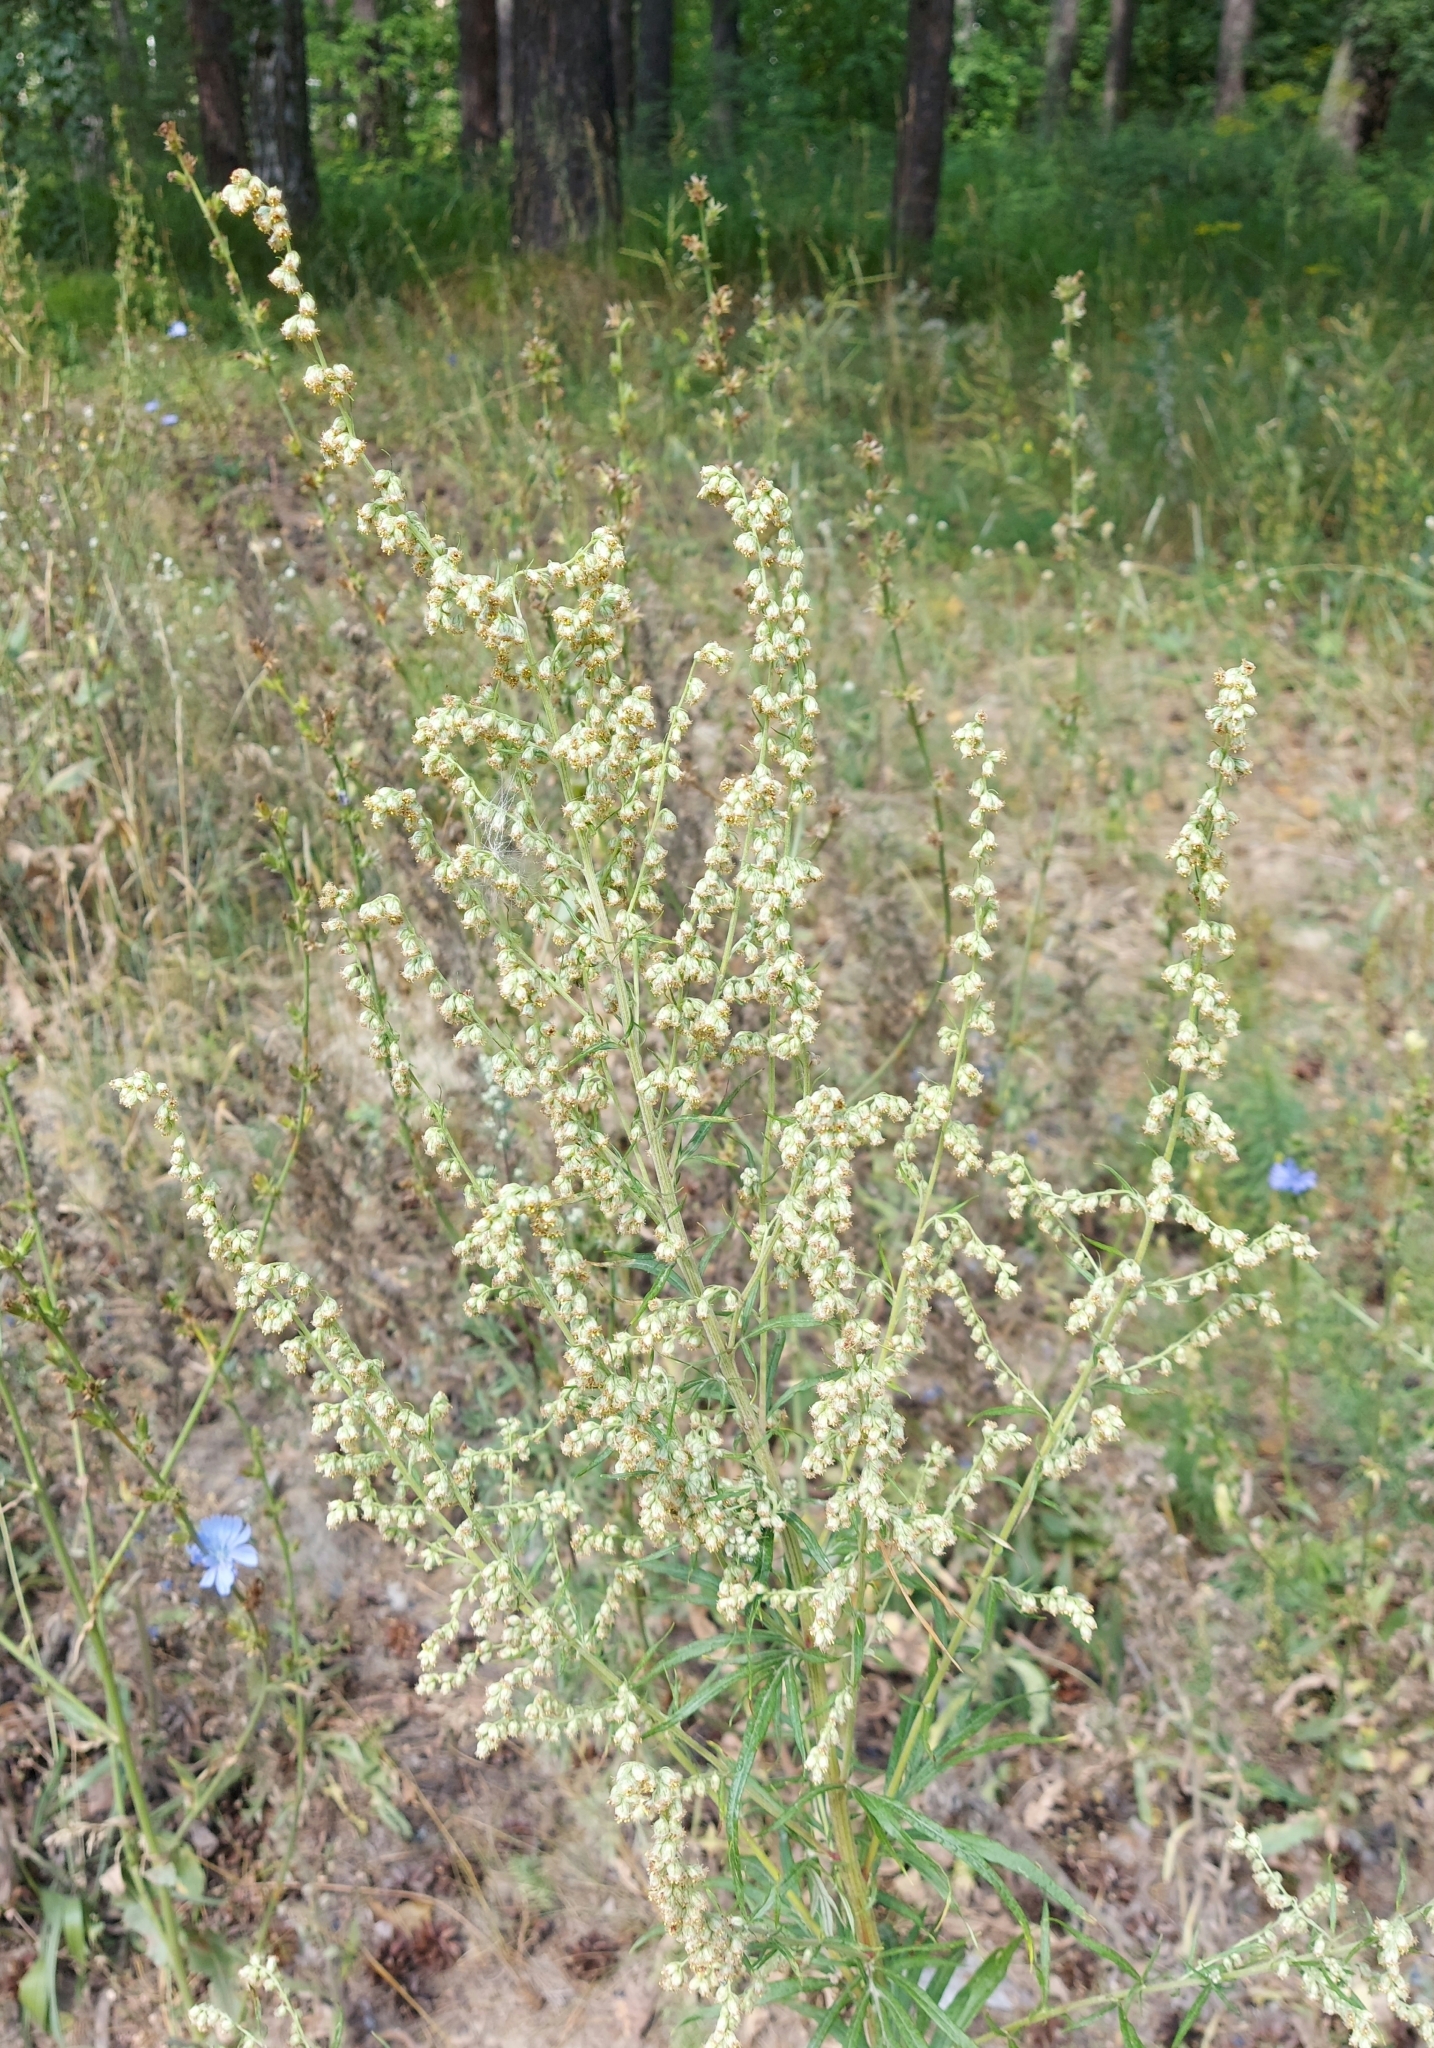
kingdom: Plantae
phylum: Tracheophyta
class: Magnoliopsida
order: Asterales
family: Asteraceae
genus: Artemisia
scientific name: Artemisia vulgaris
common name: Mugwort
